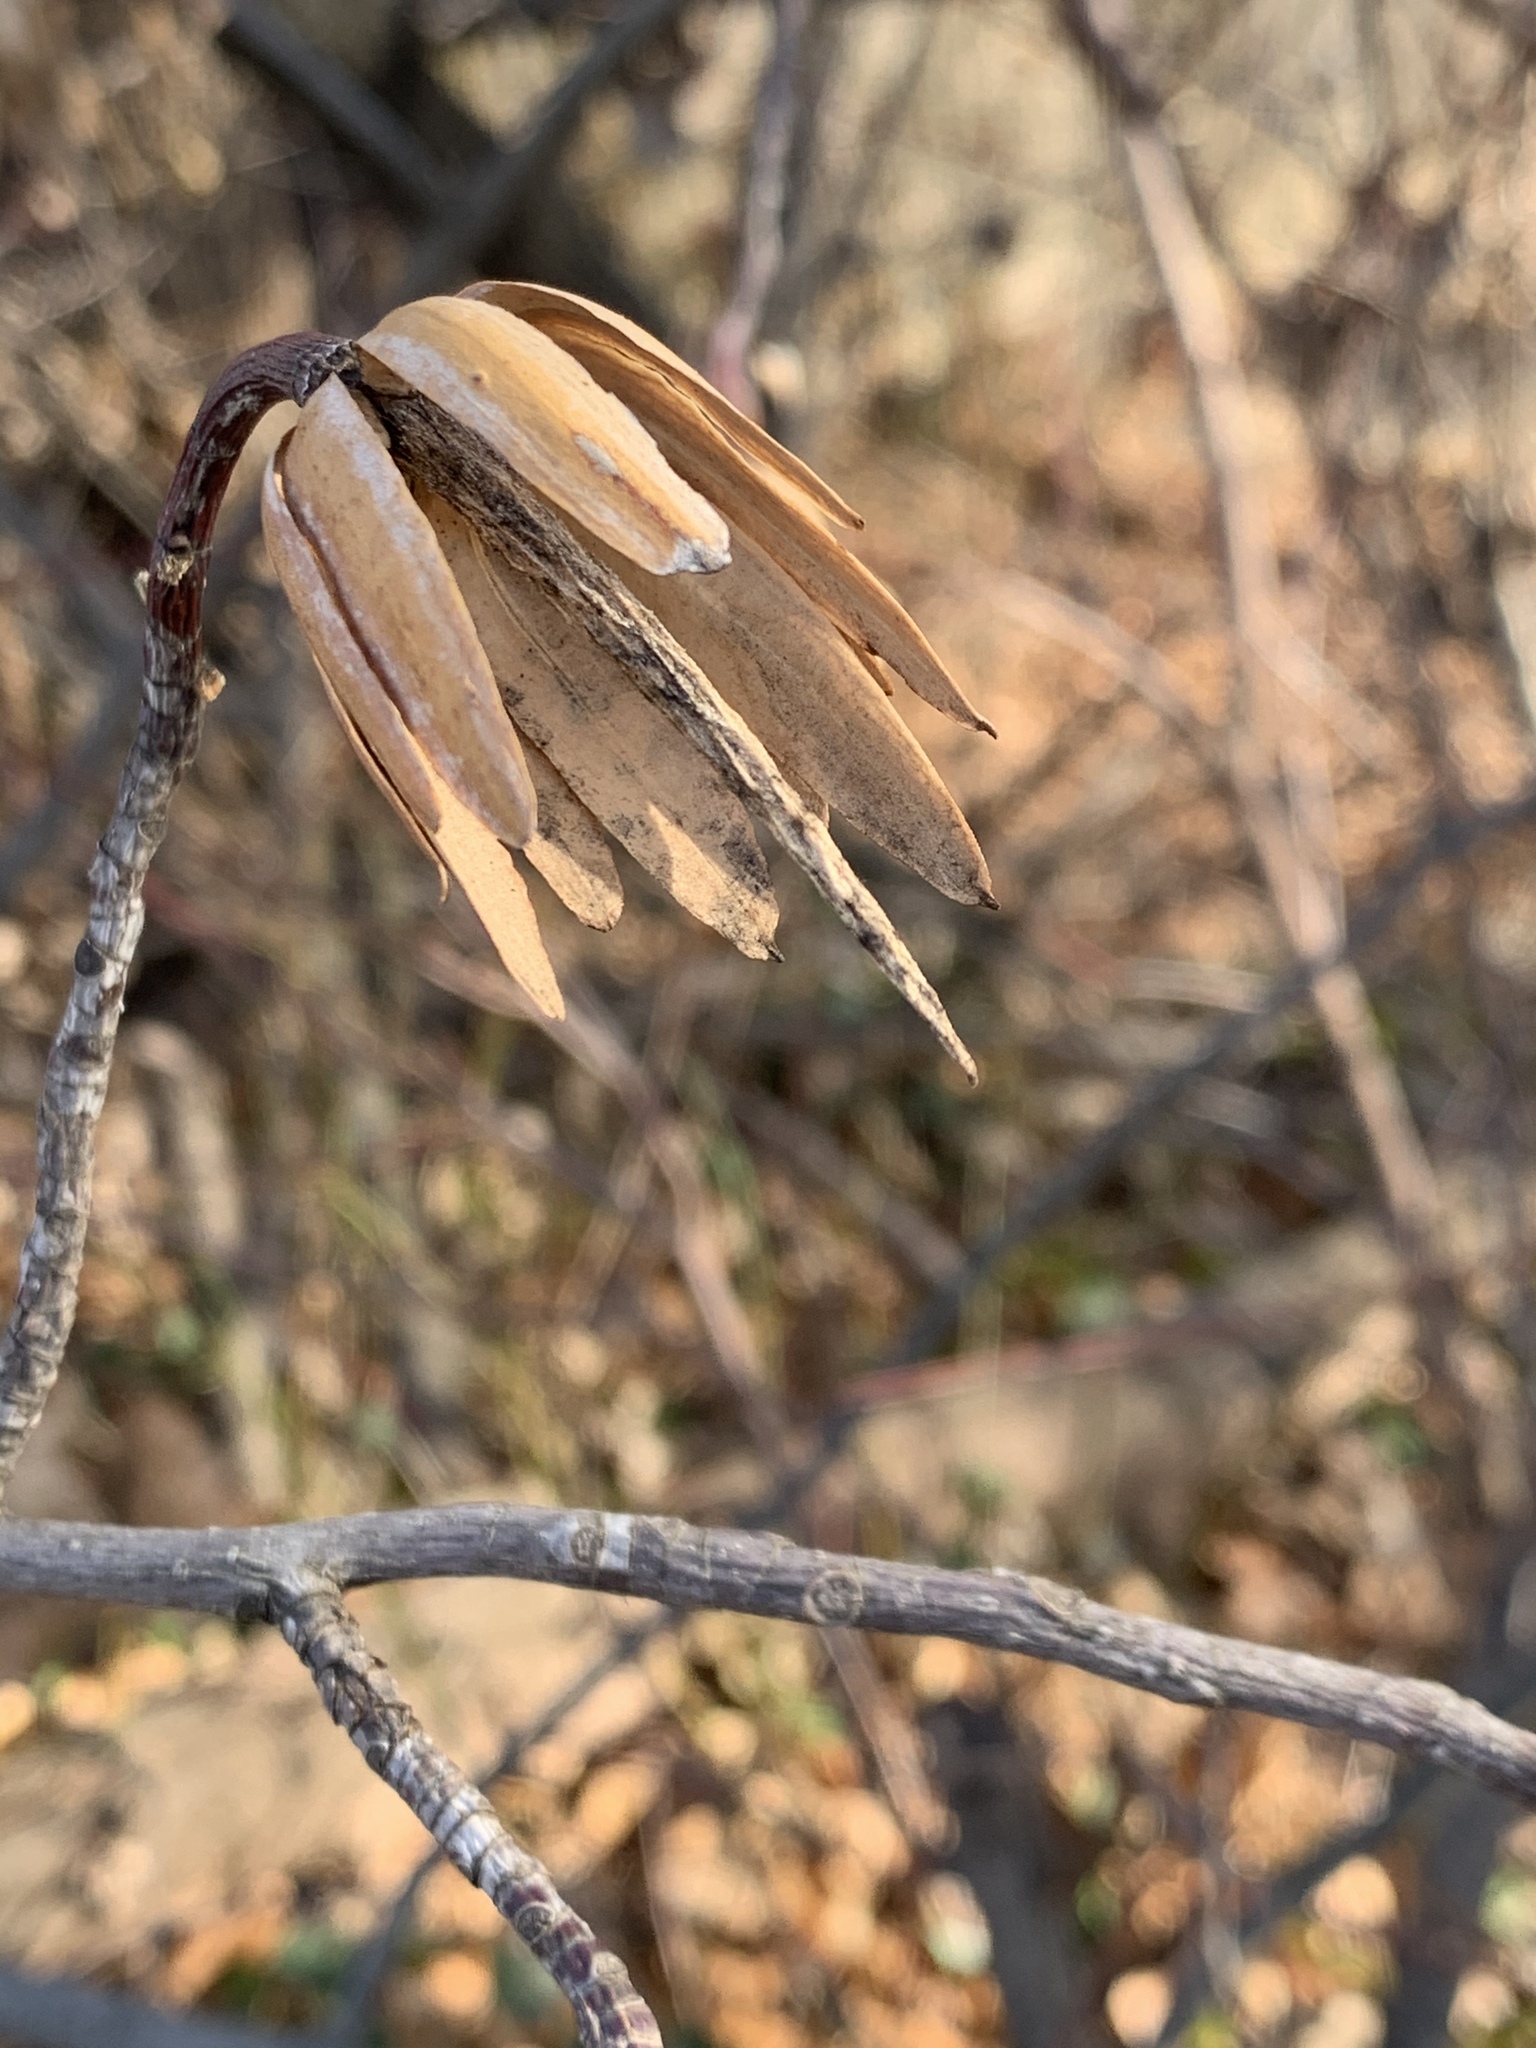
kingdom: Plantae
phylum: Tracheophyta
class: Magnoliopsida
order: Magnoliales
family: Magnoliaceae
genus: Liriodendron
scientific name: Liriodendron tulipifera
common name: Tulip tree
